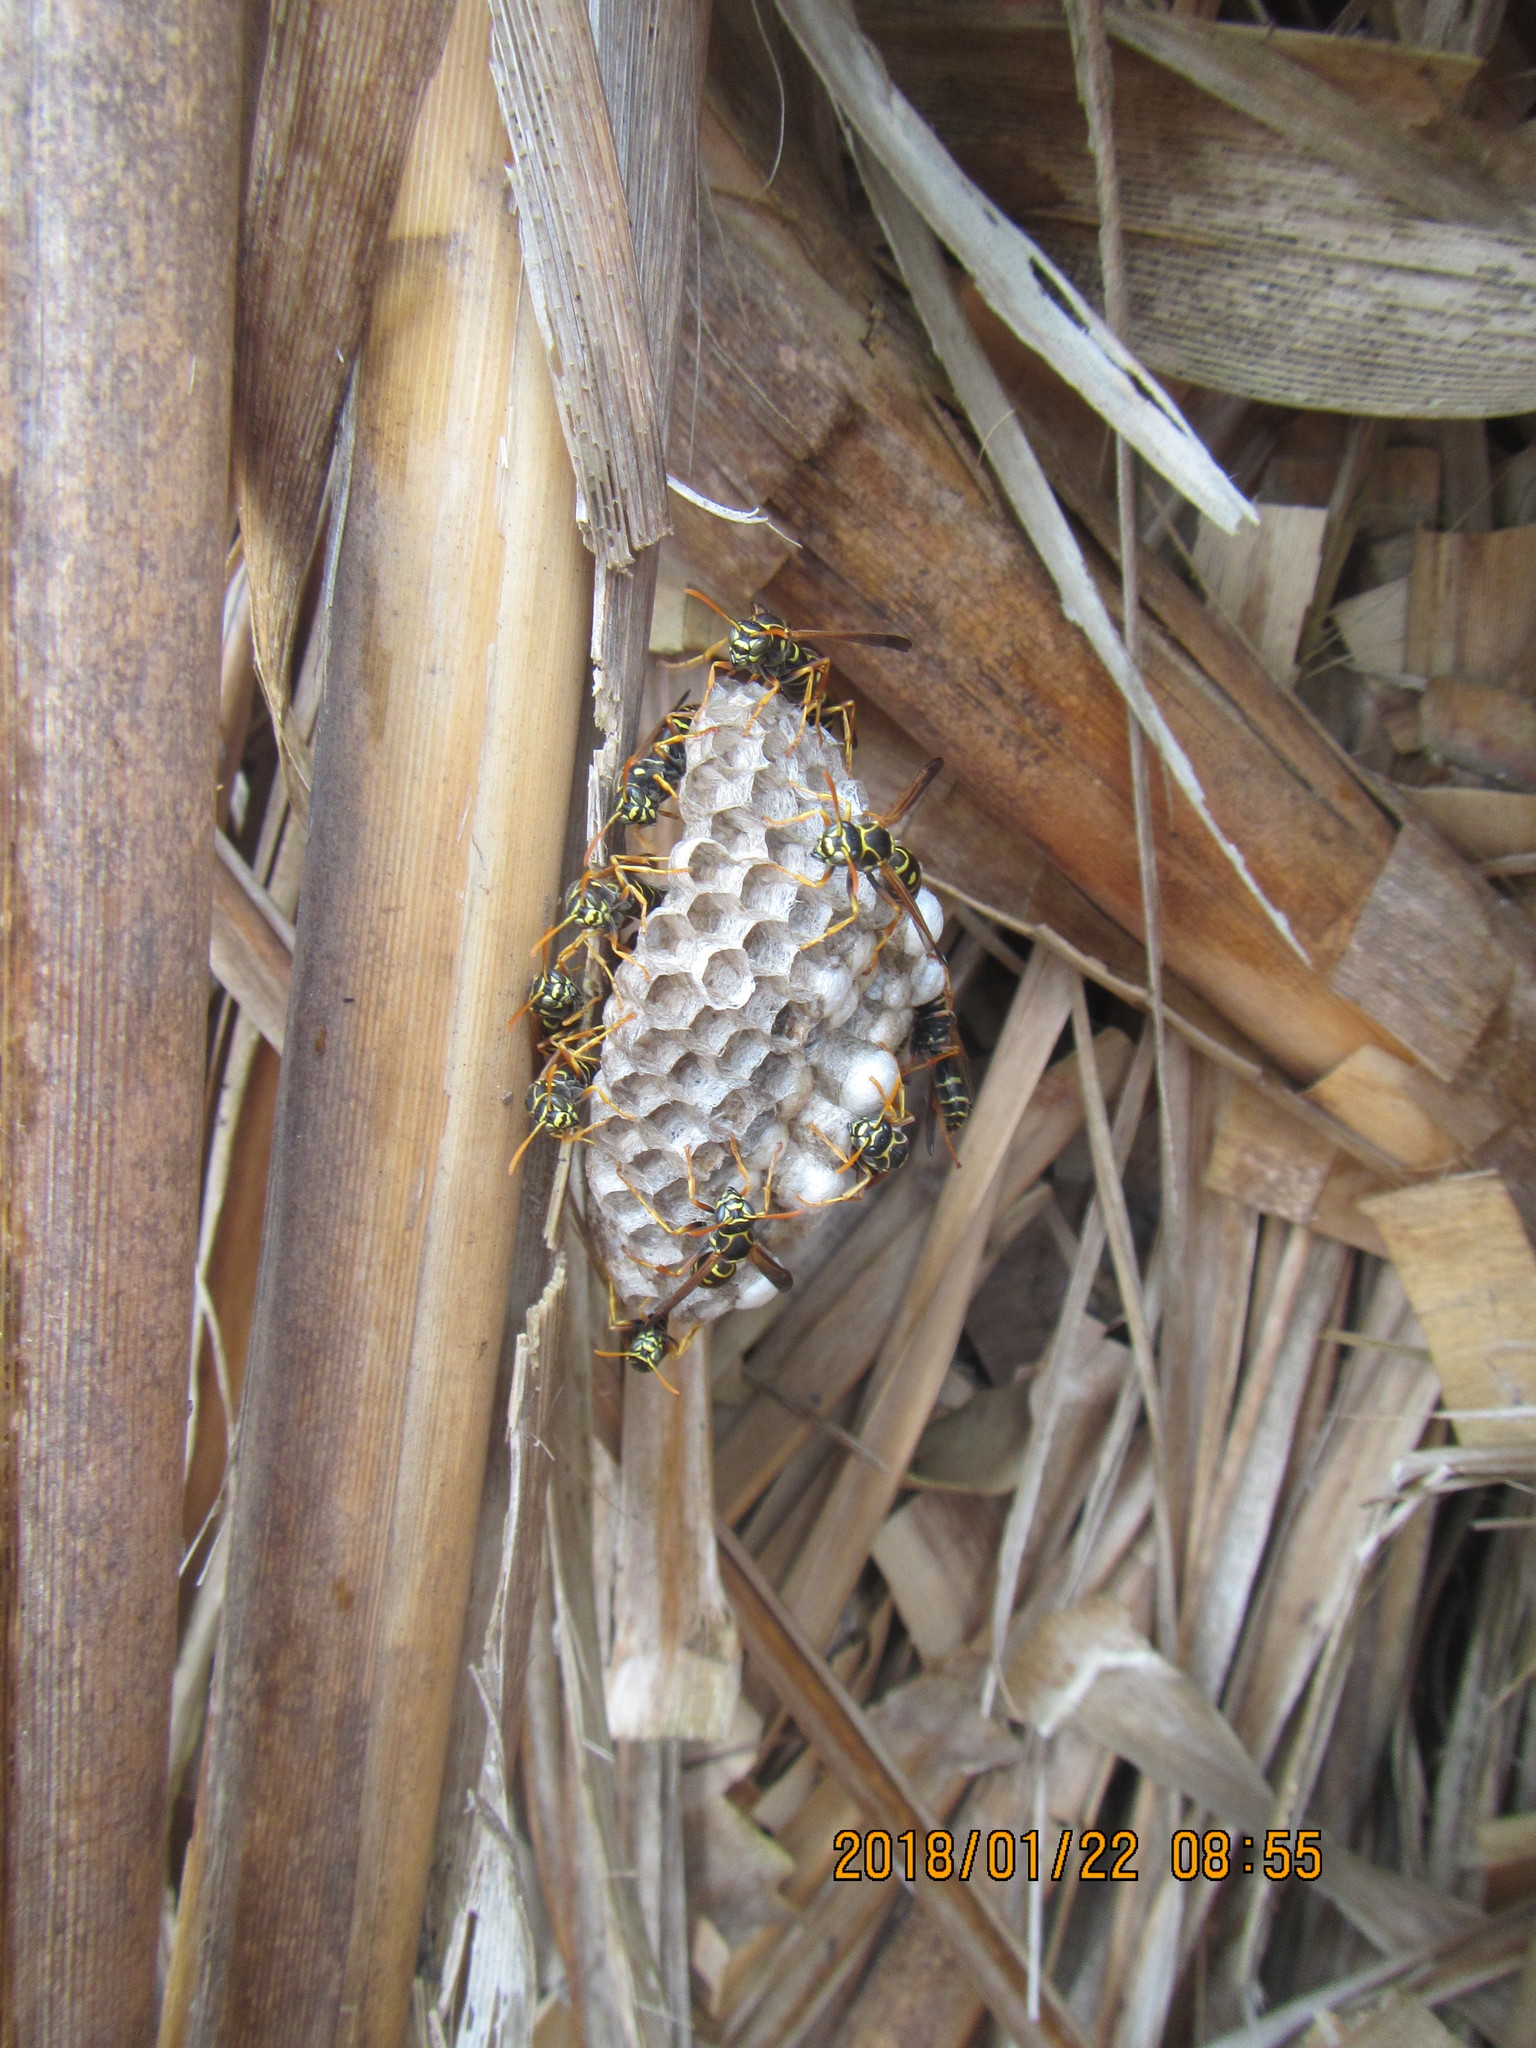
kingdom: Animalia
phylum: Arthropoda
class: Insecta
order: Hymenoptera
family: Eumenidae
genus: Polistes
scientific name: Polistes chinensis
